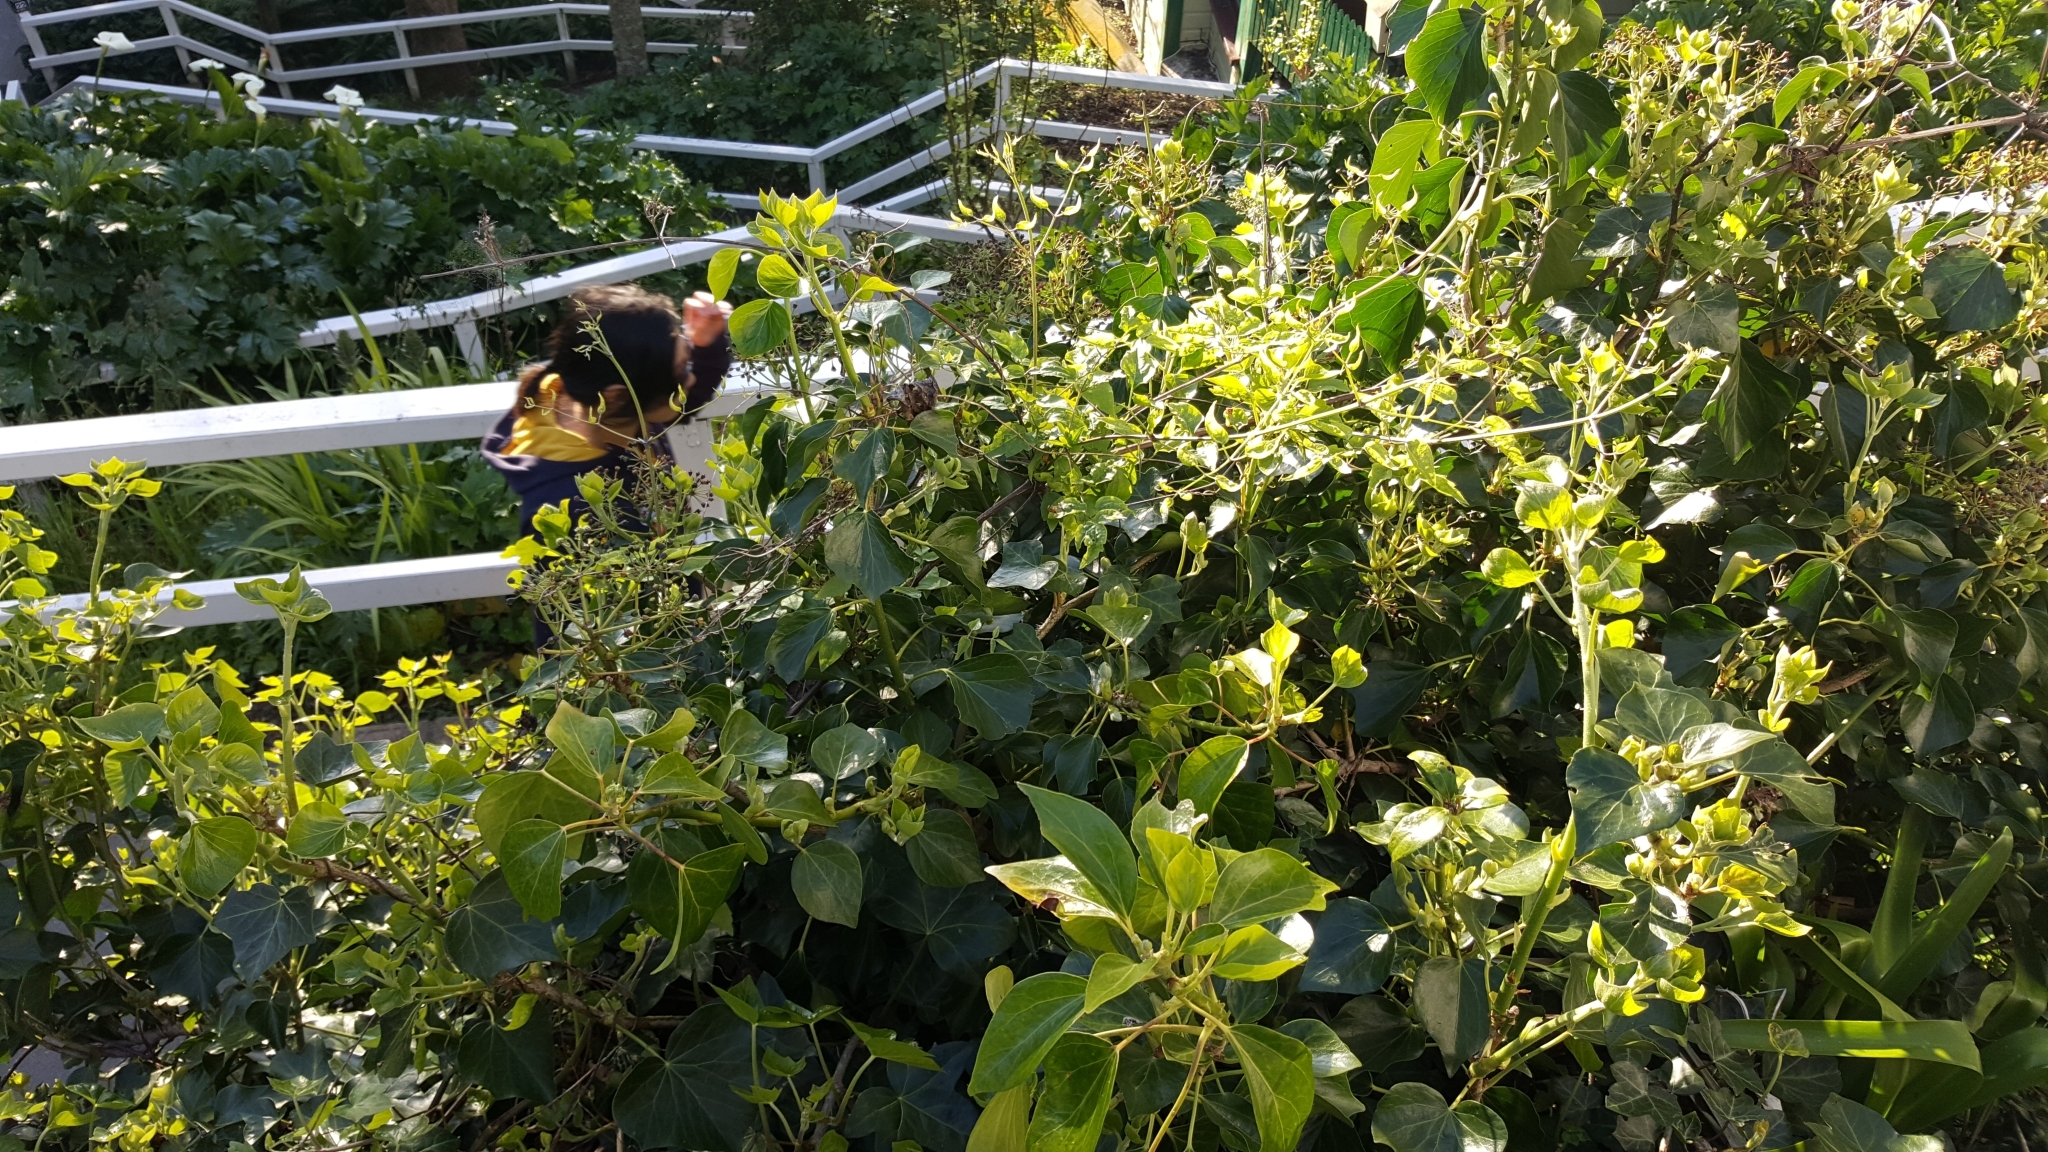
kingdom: Plantae
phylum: Tracheophyta
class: Magnoliopsida
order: Ranunculales
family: Ranunculaceae
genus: Clematis
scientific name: Clematis vitalba
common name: Evergreen clematis
